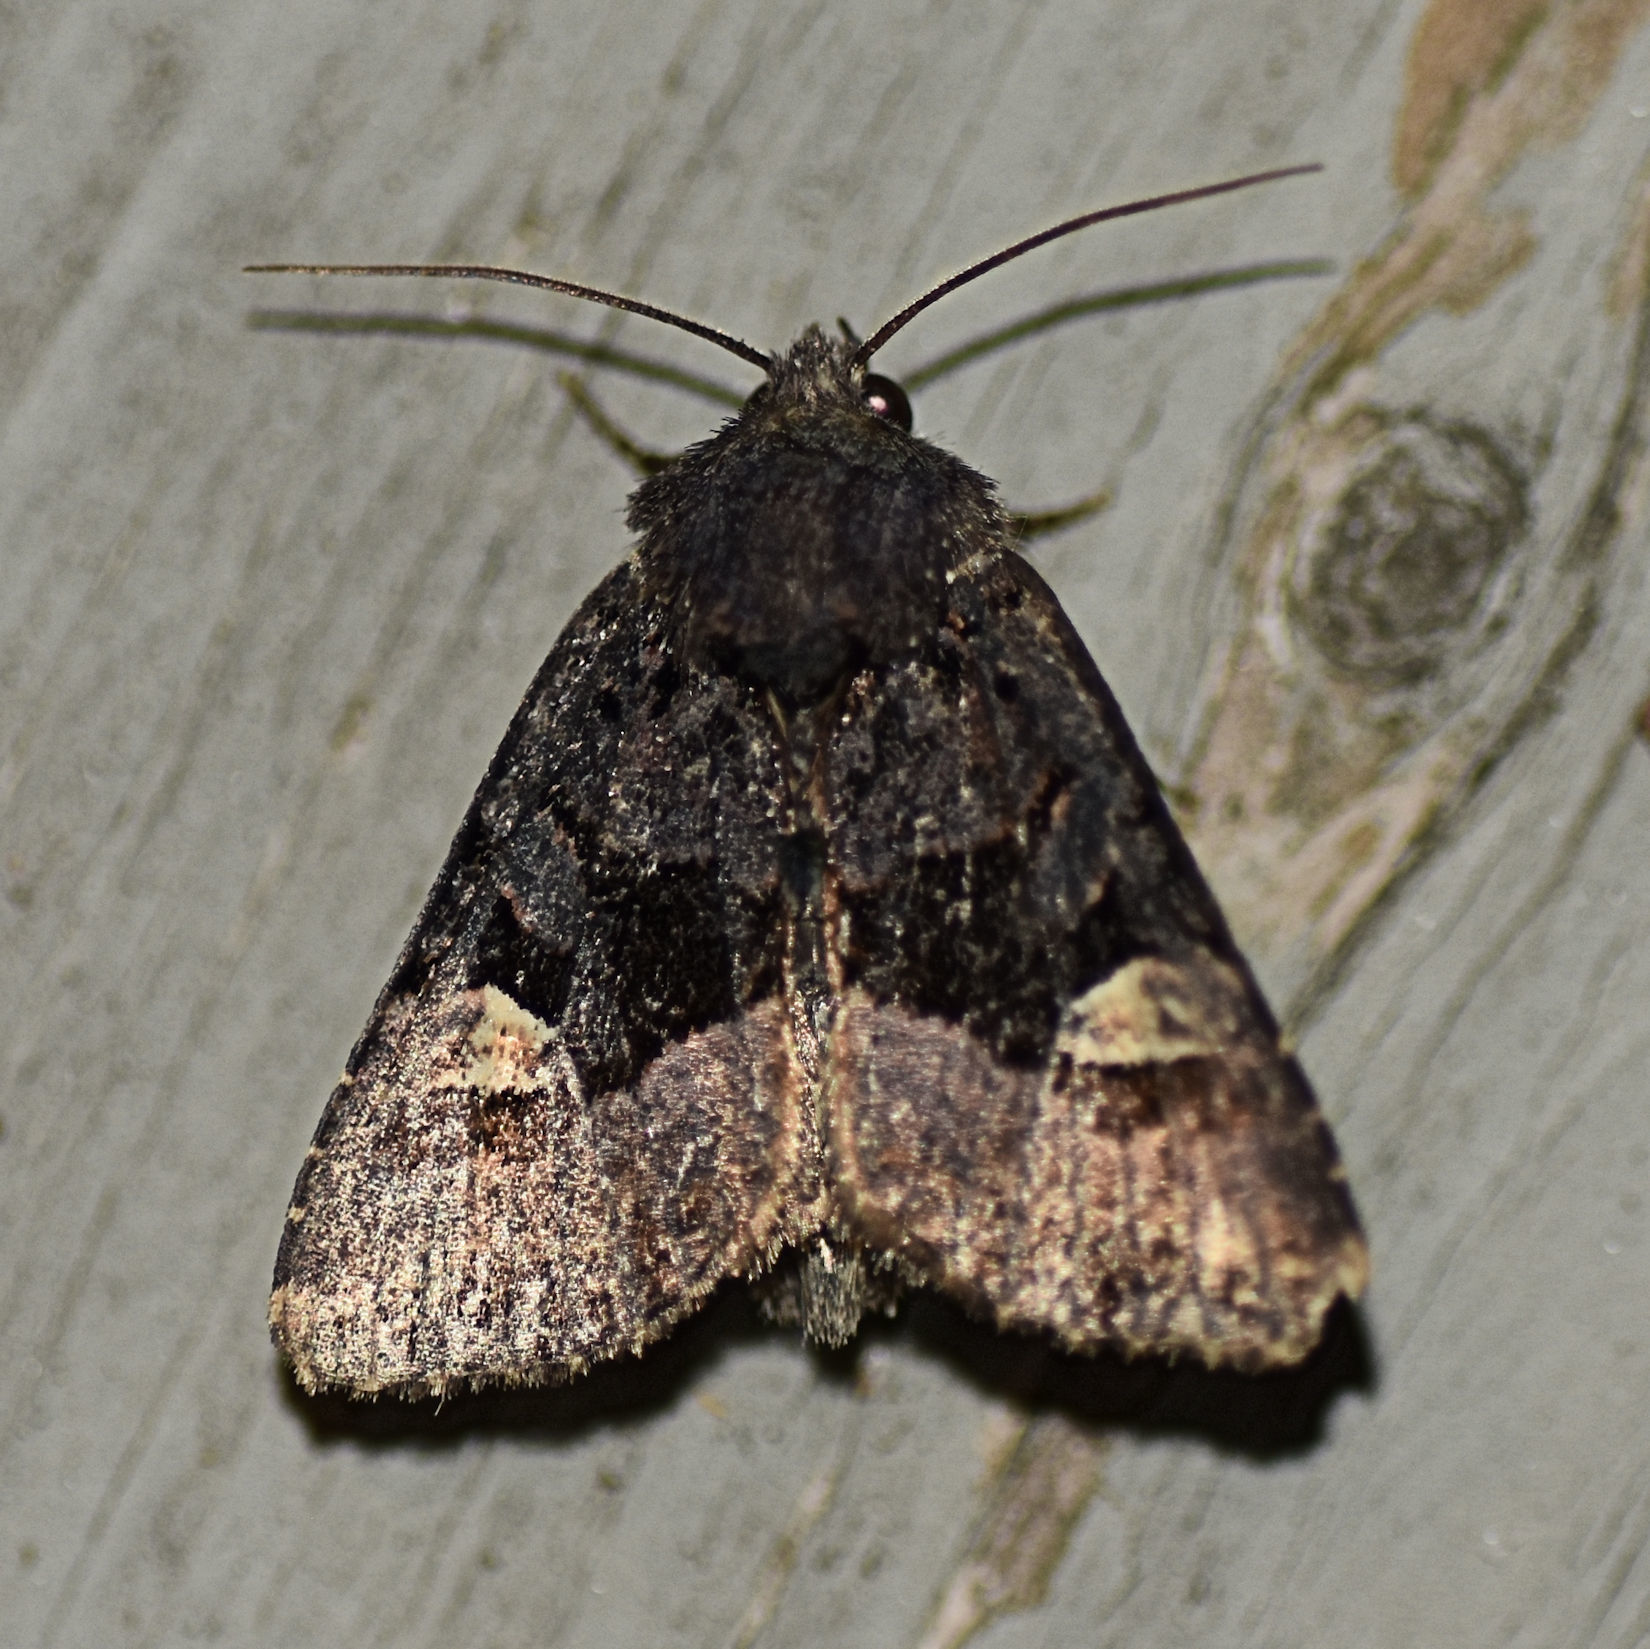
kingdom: Animalia
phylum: Arthropoda
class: Insecta
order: Lepidoptera
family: Noctuidae
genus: Euplexia
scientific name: Euplexia benesimilis
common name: American angle shades
